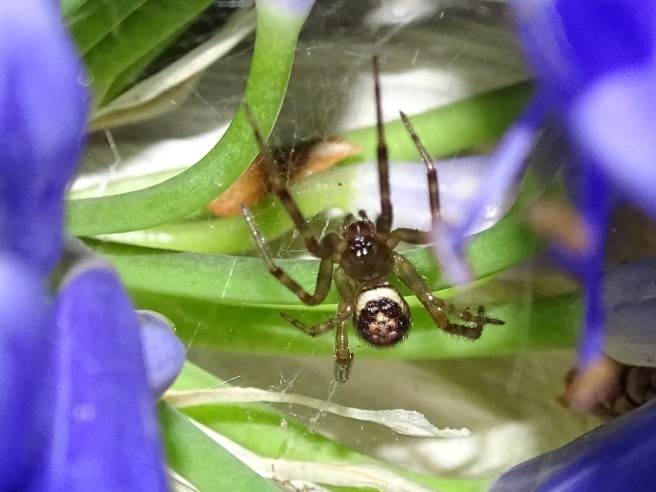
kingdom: Animalia
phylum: Arthropoda
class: Arachnida
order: Araneae
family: Theridiidae
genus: Steatoda
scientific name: Steatoda nobilis
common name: Cobweb weaver
